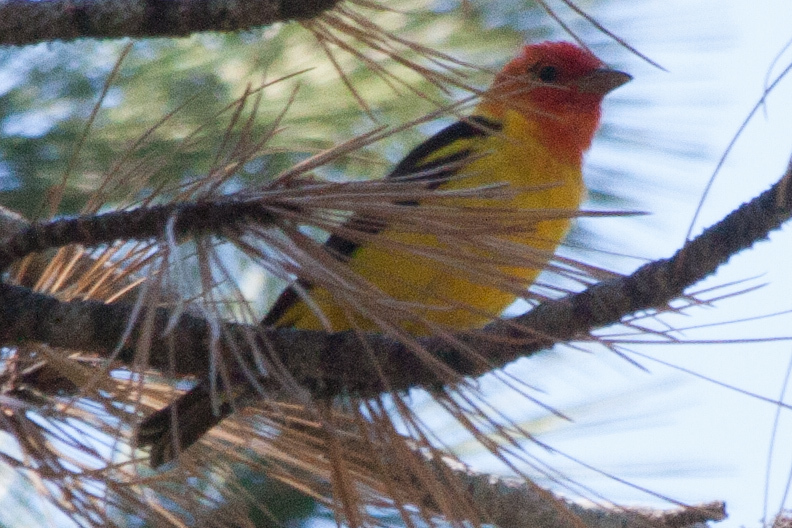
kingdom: Animalia
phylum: Chordata
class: Aves
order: Passeriformes
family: Cardinalidae
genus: Piranga
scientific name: Piranga ludoviciana
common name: Western tanager
